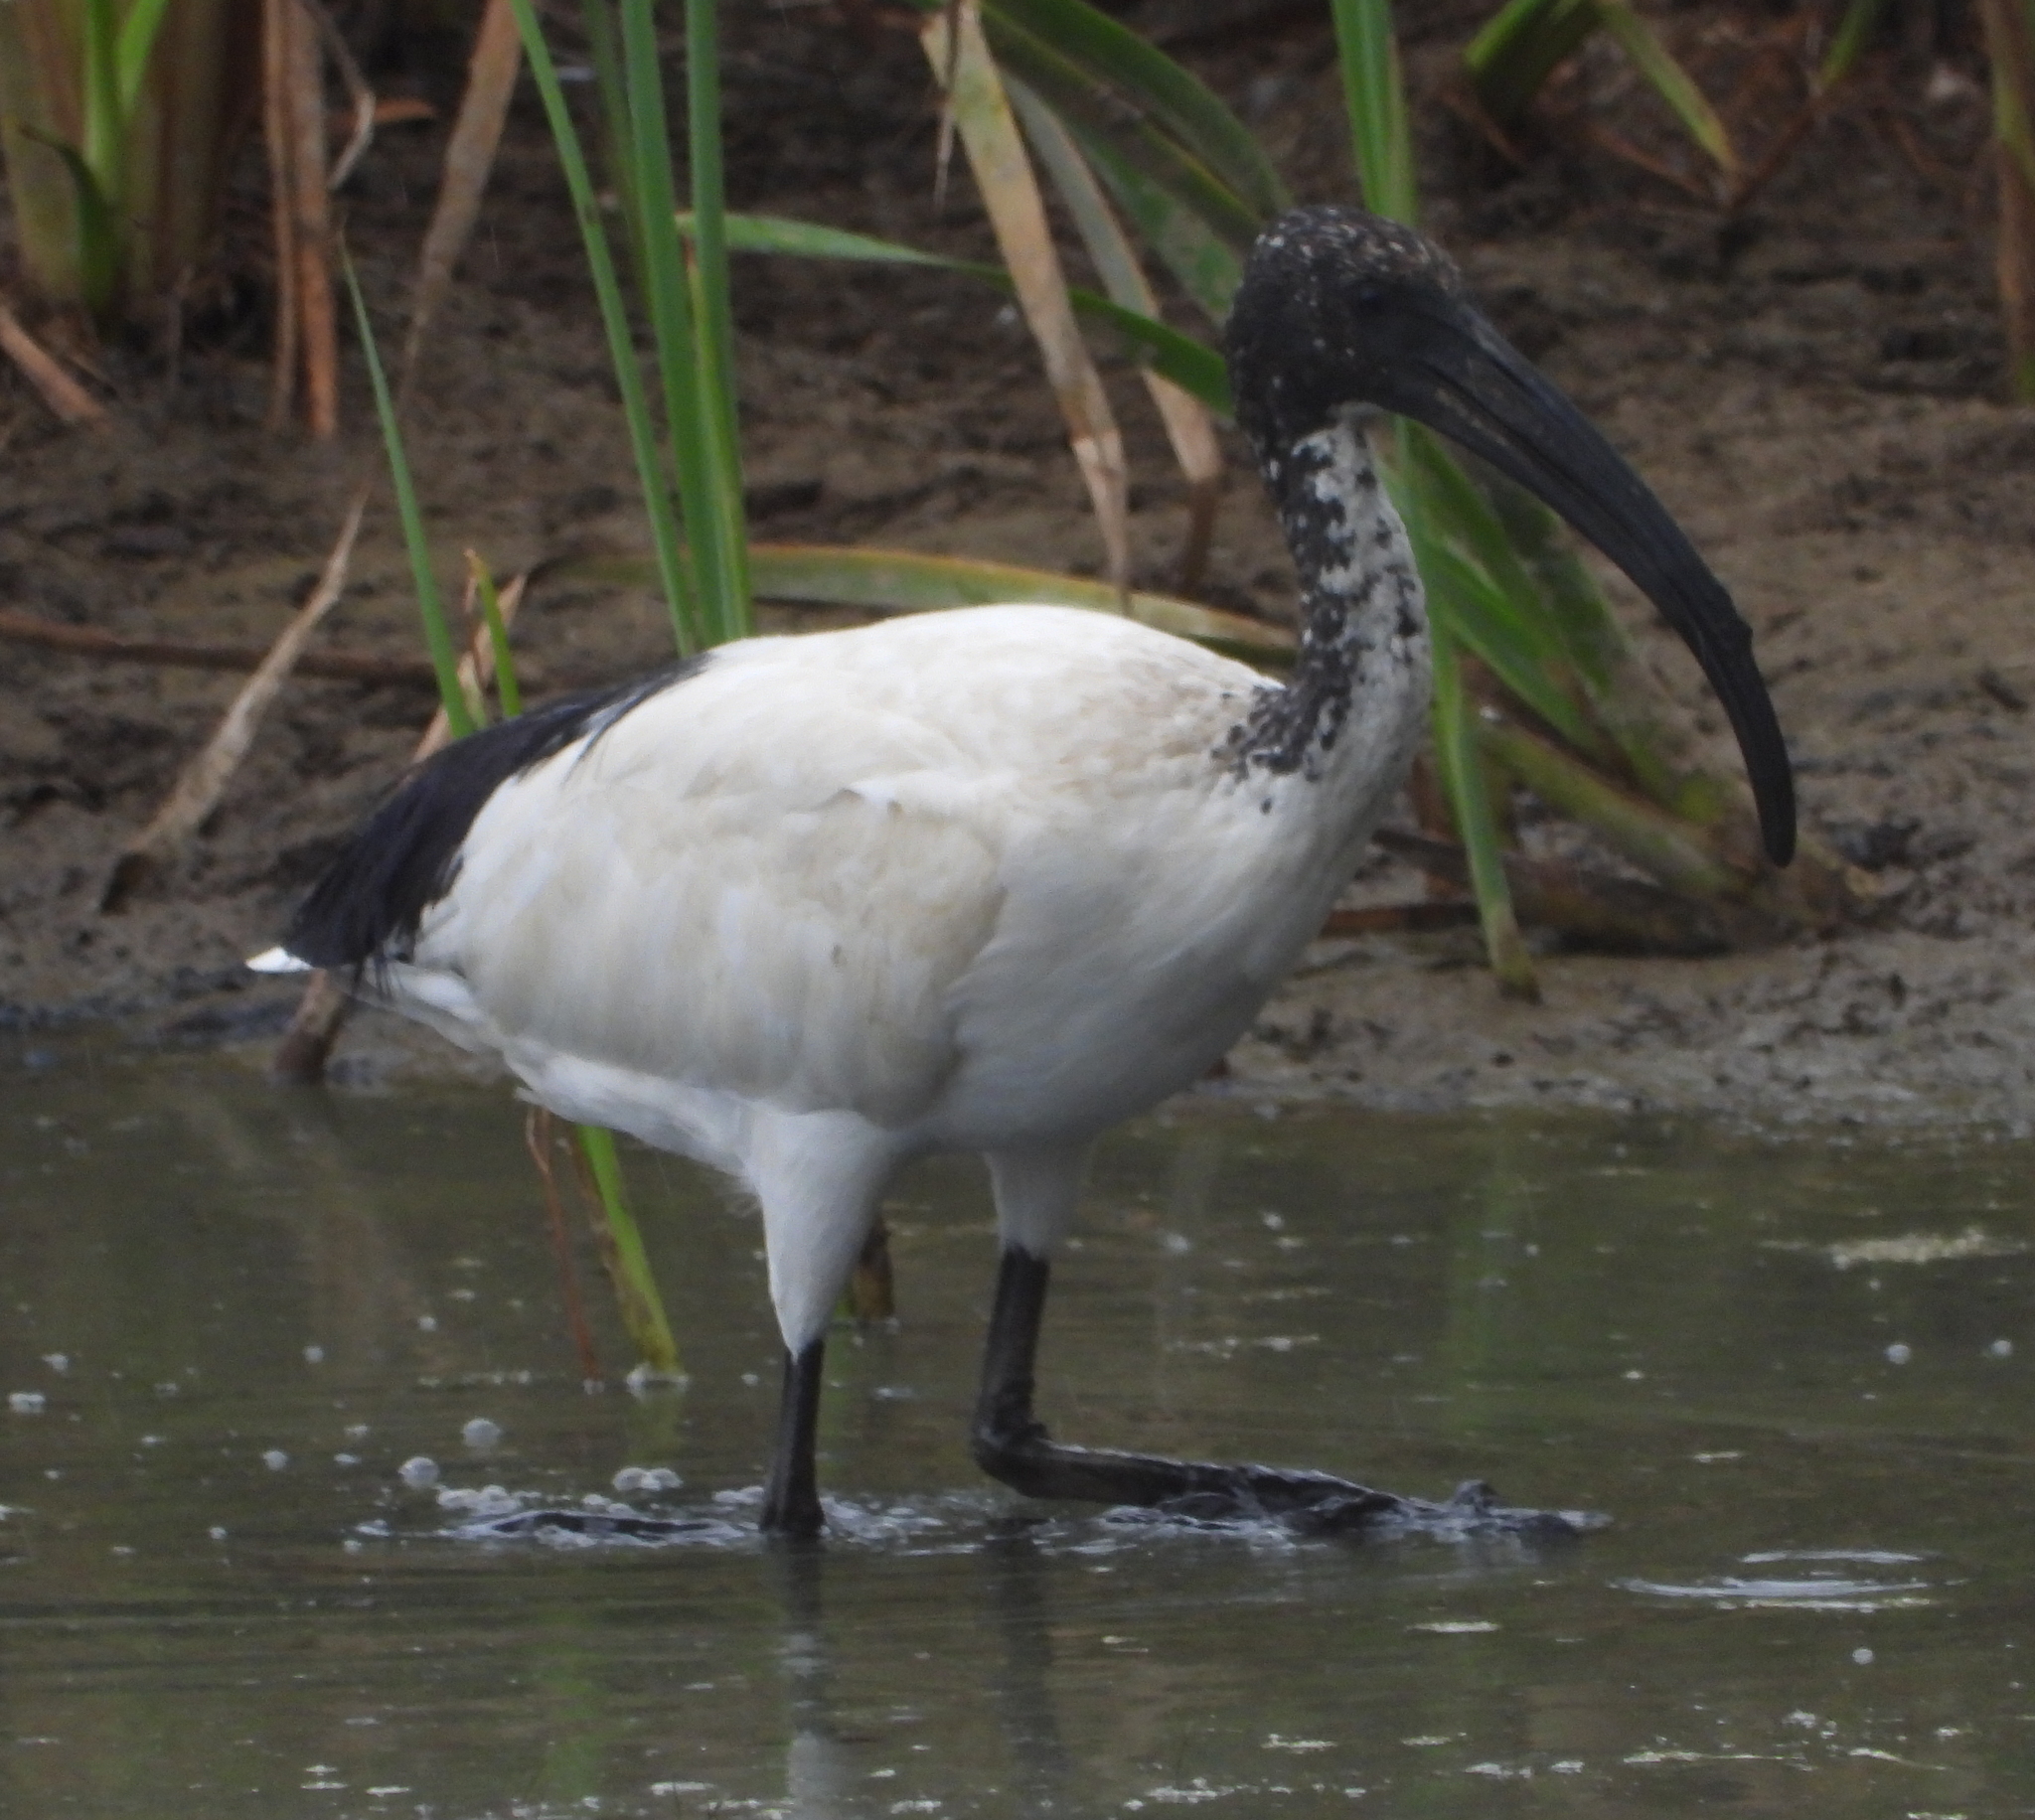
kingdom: Animalia
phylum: Chordata
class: Aves
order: Pelecaniformes
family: Threskiornithidae
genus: Threskiornis
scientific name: Threskiornis aethiopicus
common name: Sacred ibis
